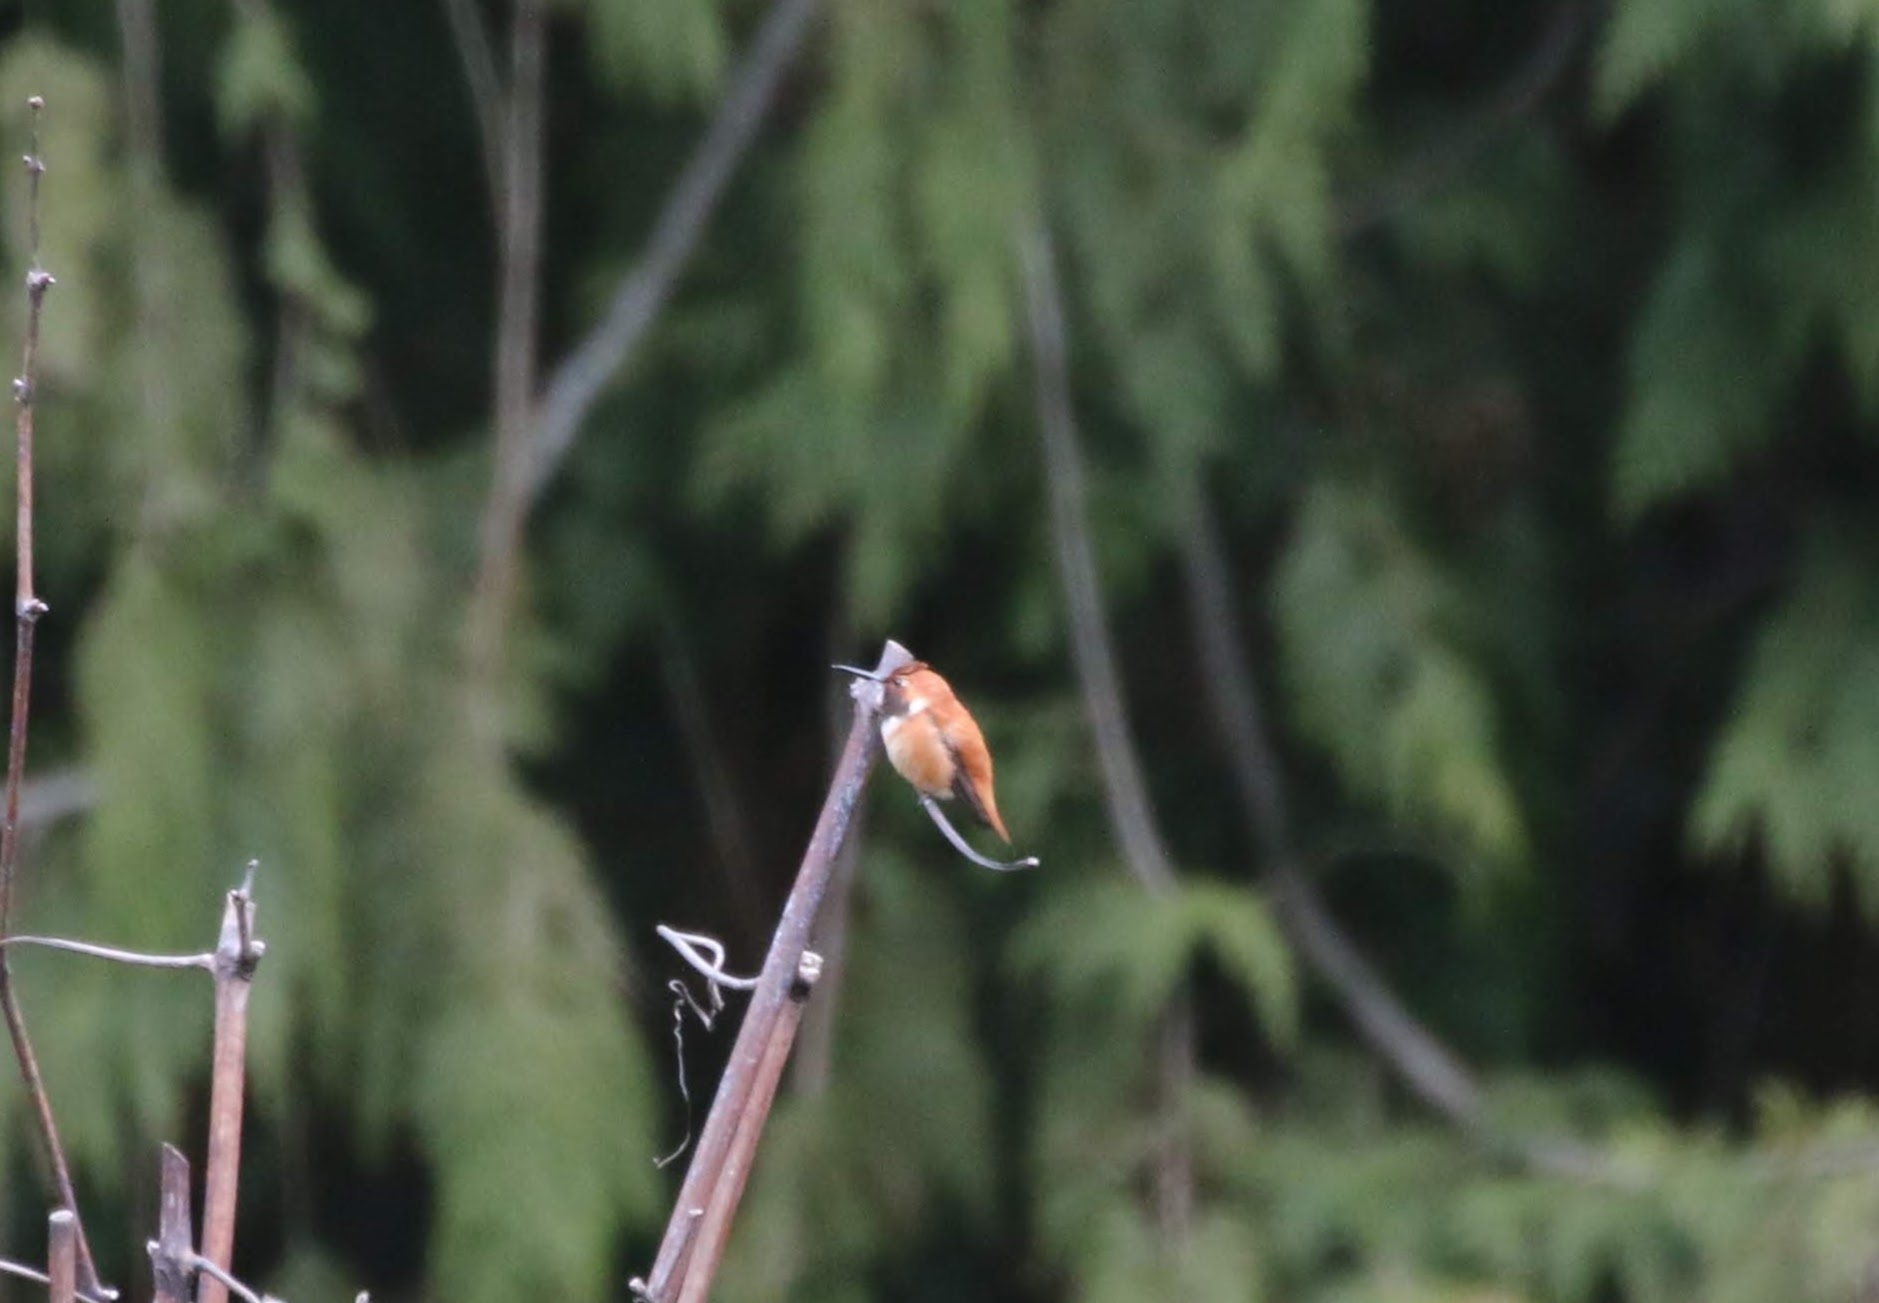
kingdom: Animalia
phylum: Chordata
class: Aves
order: Apodiformes
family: Trochilidae
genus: Selasphorus
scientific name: Selasphorus rufus
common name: Rufous hummingbird
